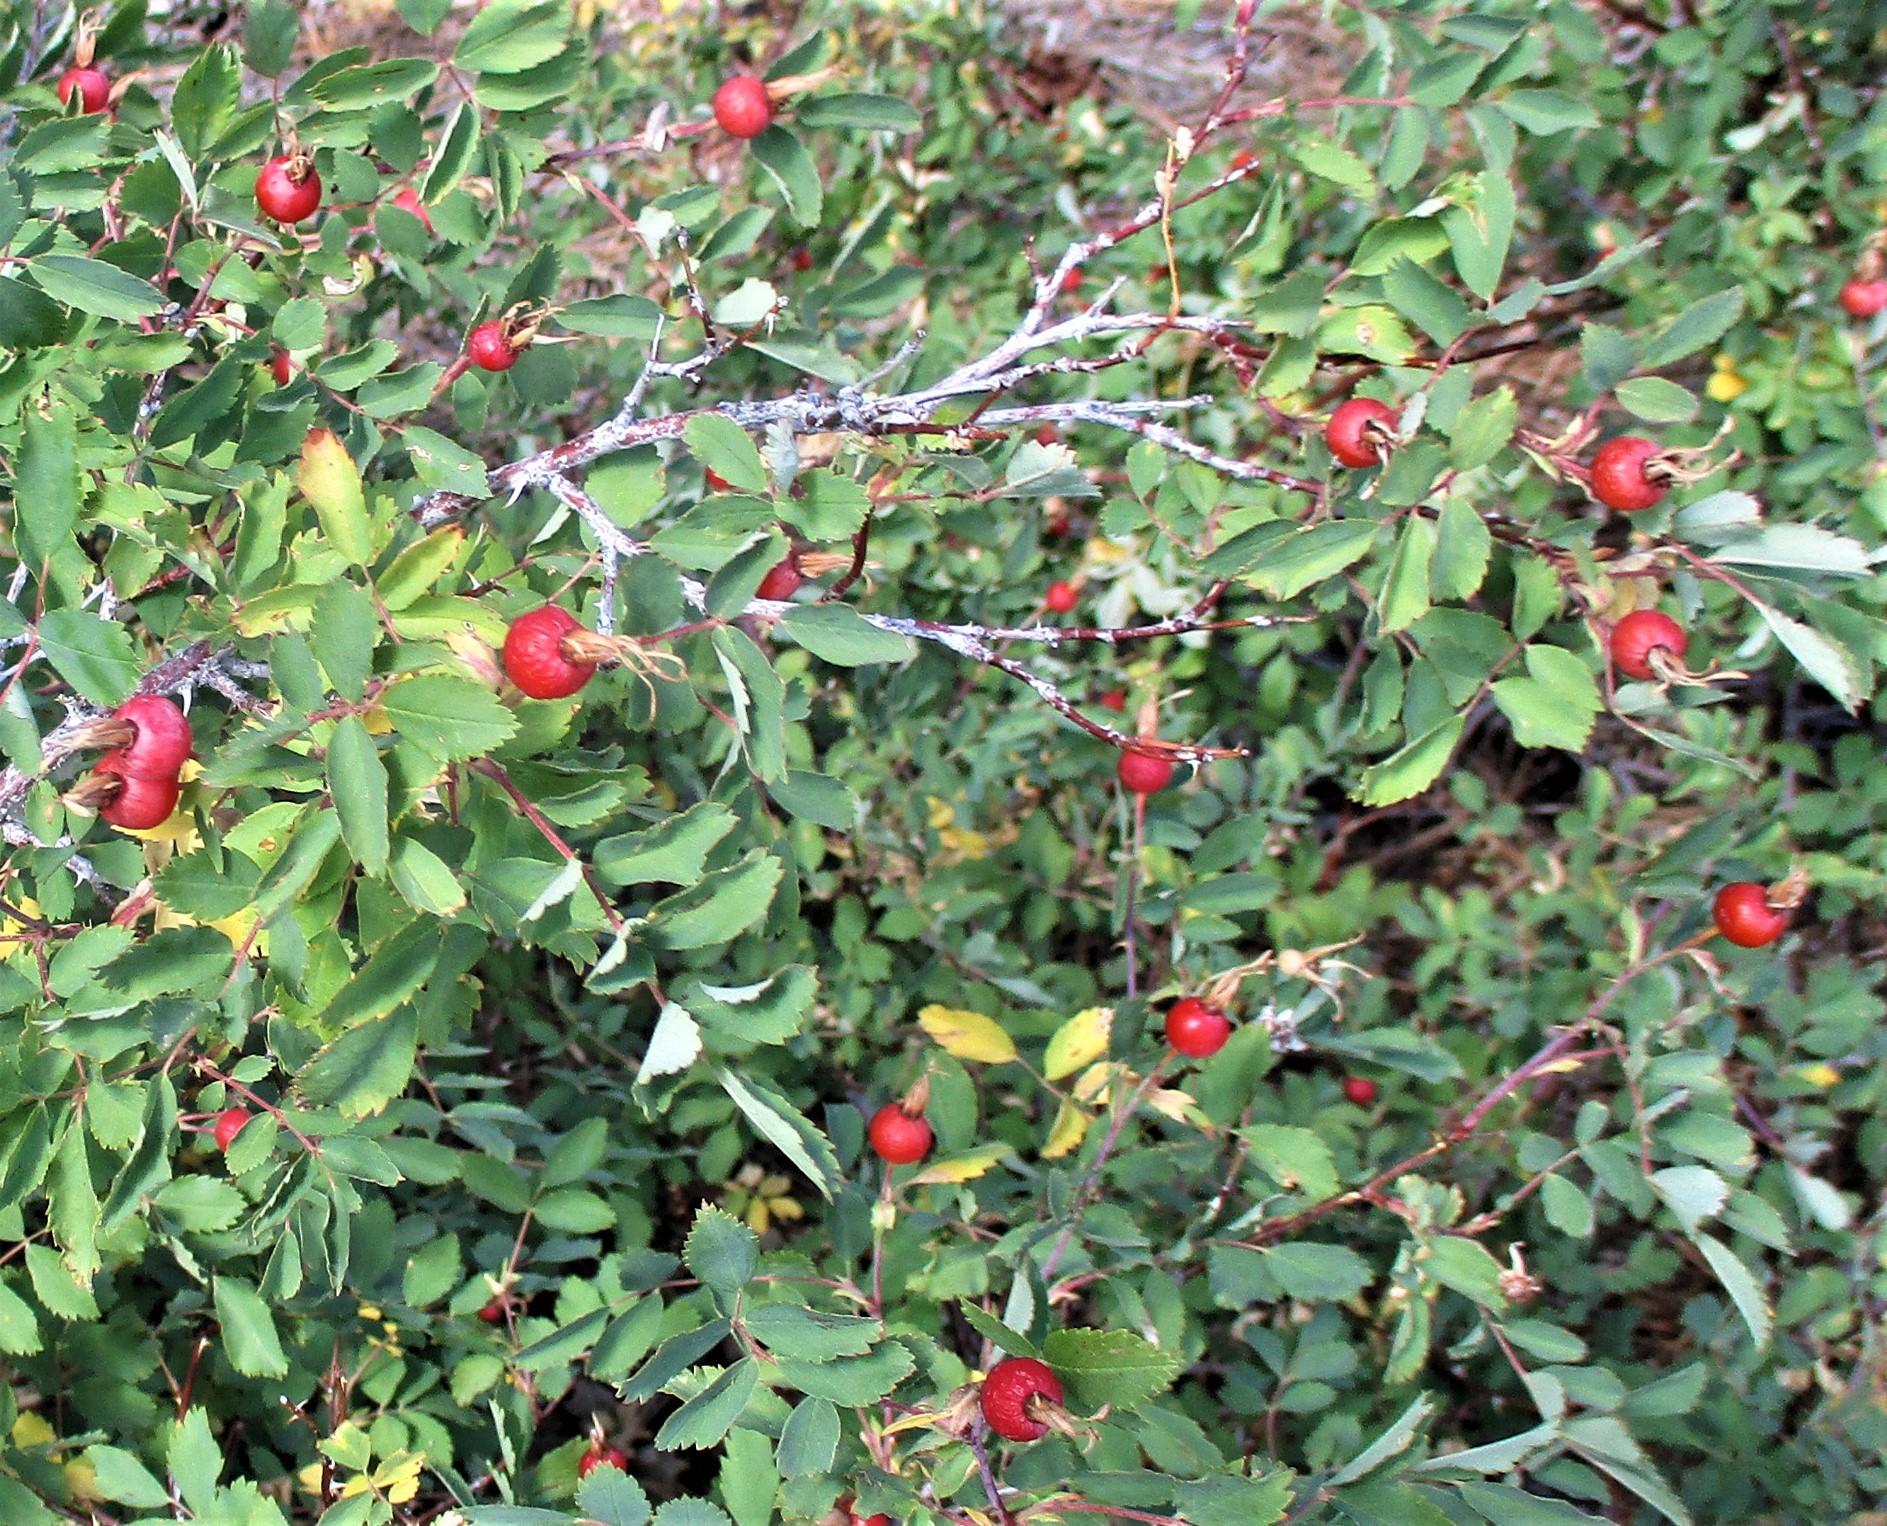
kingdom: Plantae
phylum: Tracheophyta
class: Magnoliopsida
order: Rosales
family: Rosaceae
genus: Rosa
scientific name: Rosa woodsii
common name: Woods's rose
